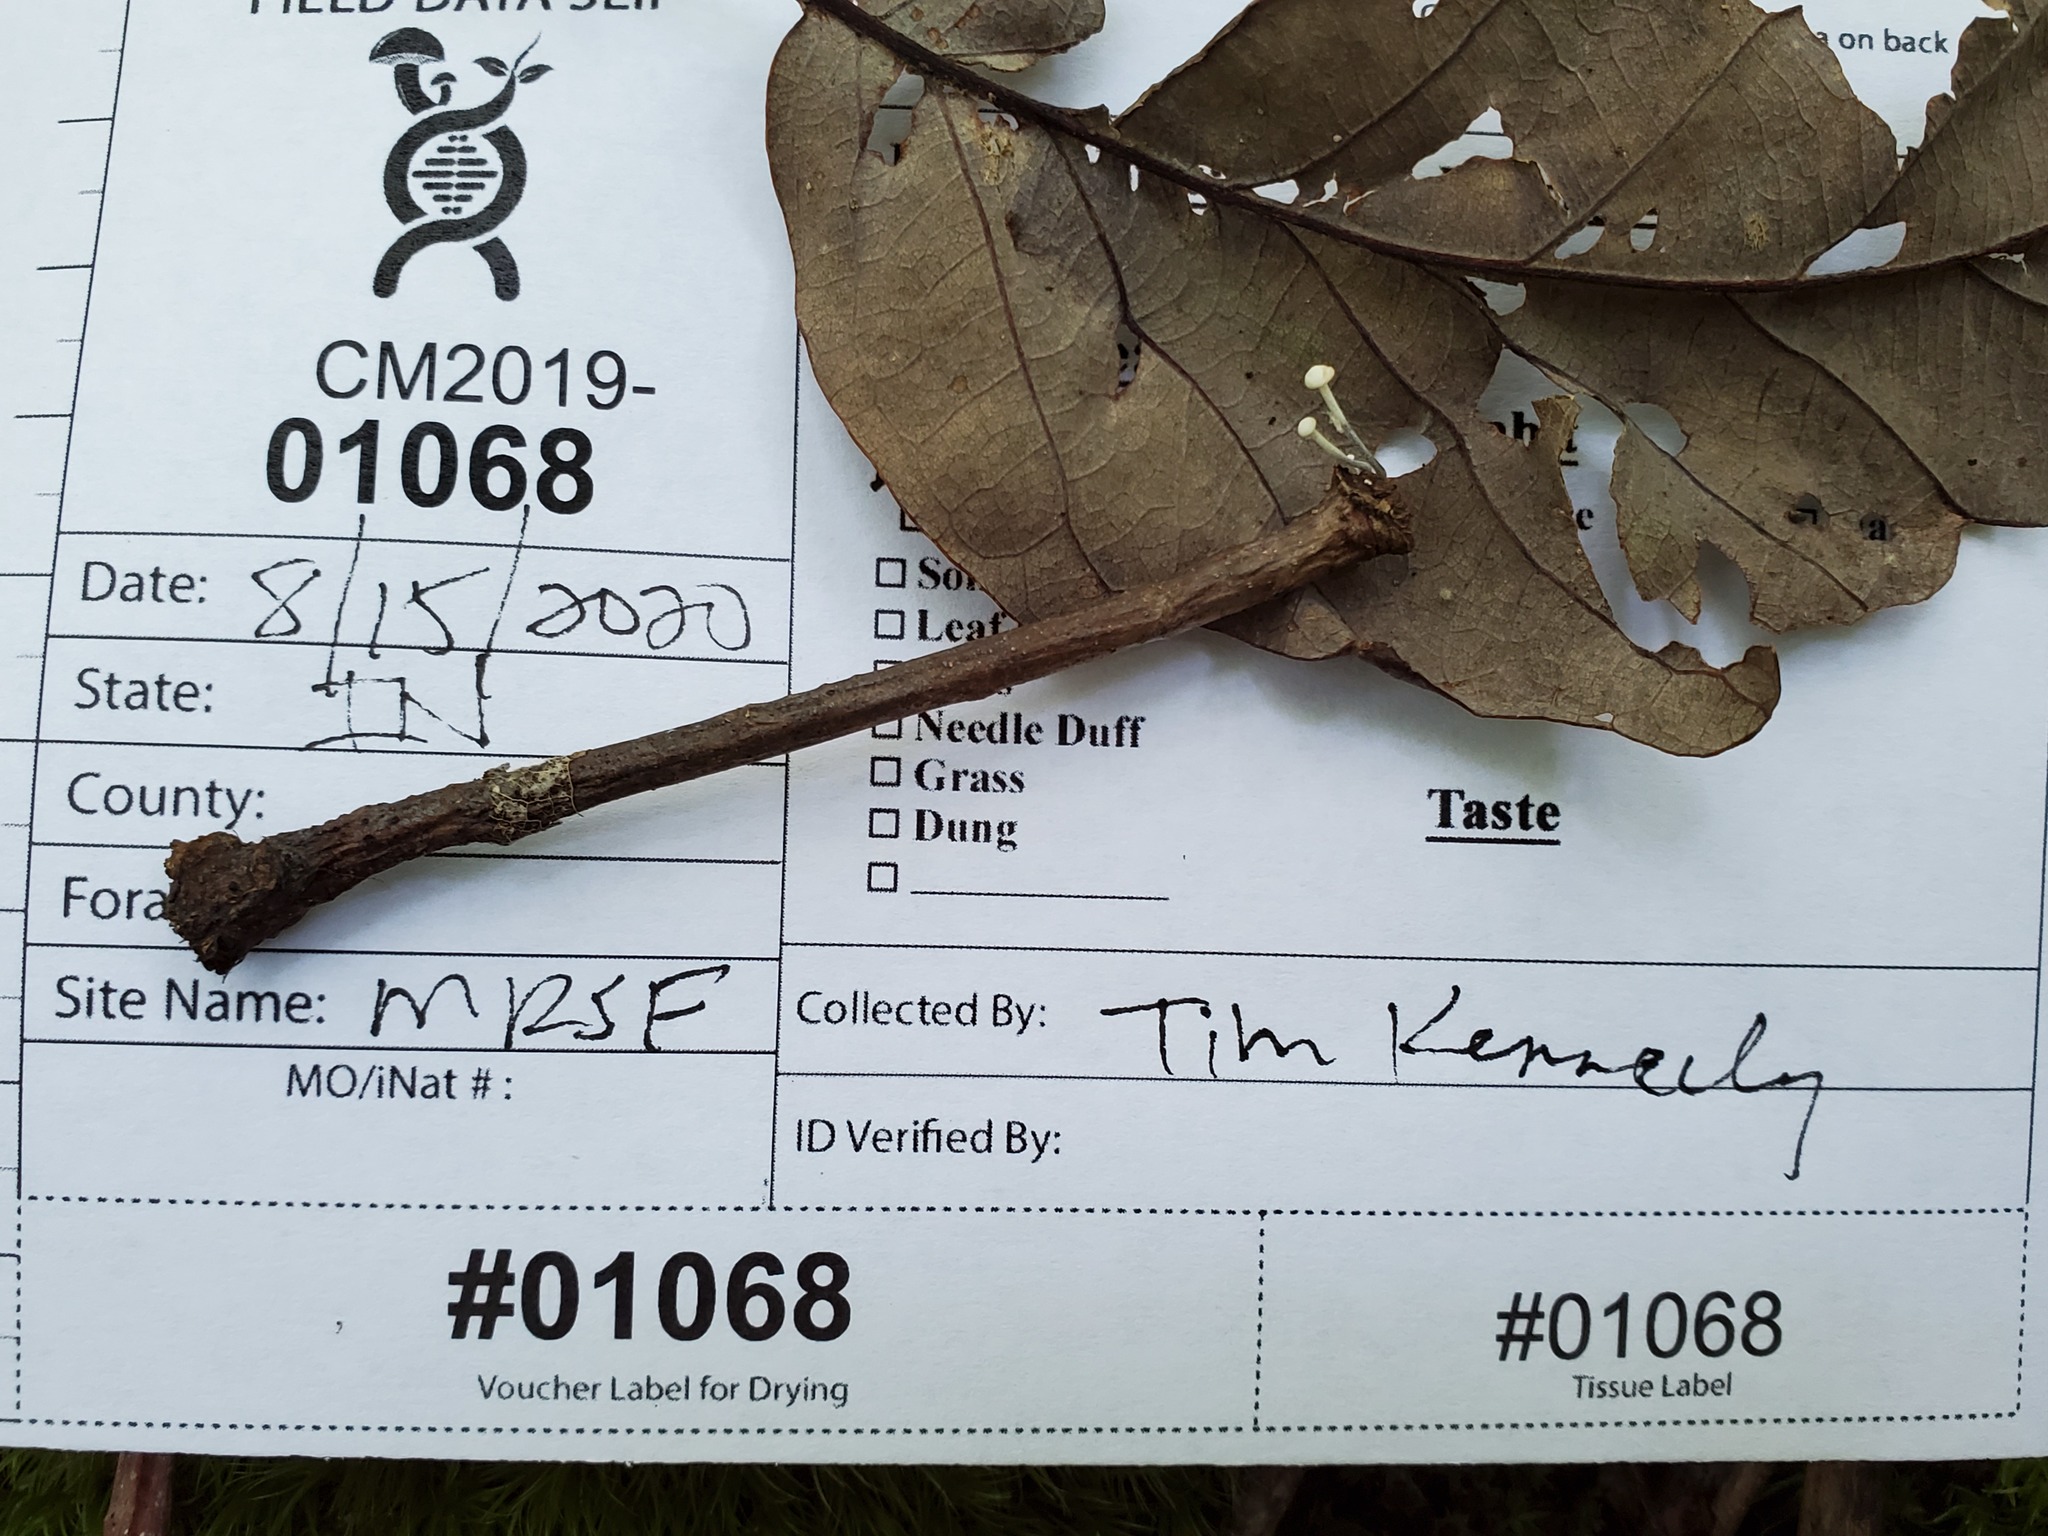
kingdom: Fungi
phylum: Basidiomycota
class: Agaricomycetes
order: Agaricales
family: Marasmiaceae
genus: Tetrapyrgos
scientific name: Tetrapyrgos nigripes
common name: Black-stalked marasmius
